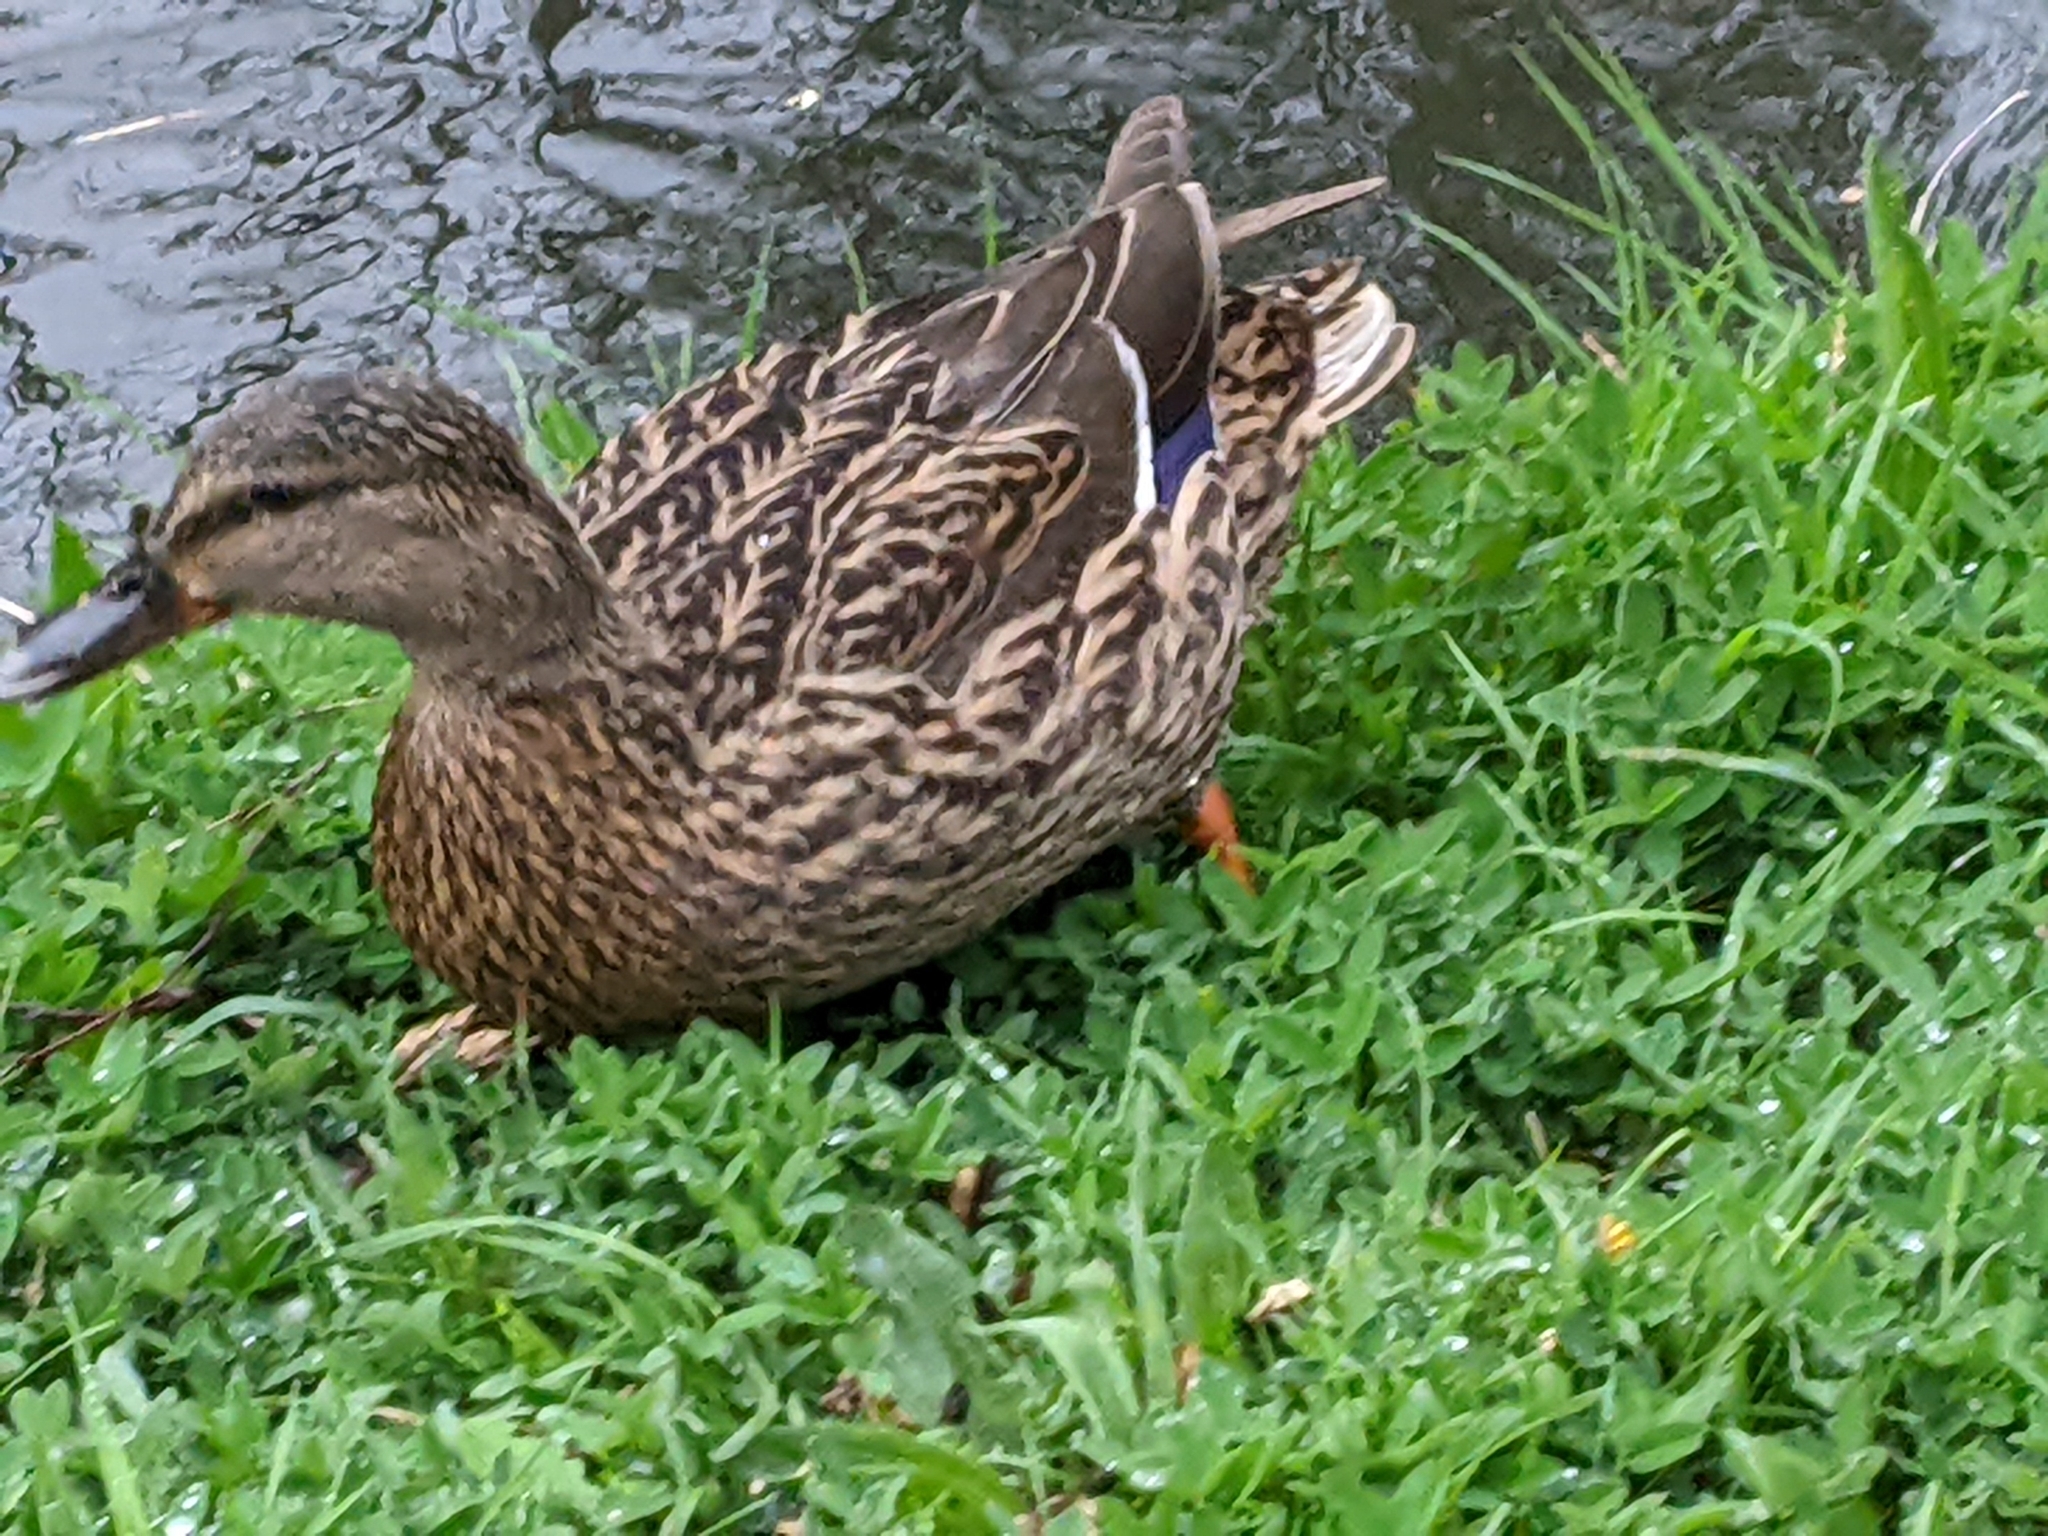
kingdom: Animalia
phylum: Chordata
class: Aves
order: Anseriformes
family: Anatidae
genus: Anas
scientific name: Anas platyrhynchos
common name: Mallard
